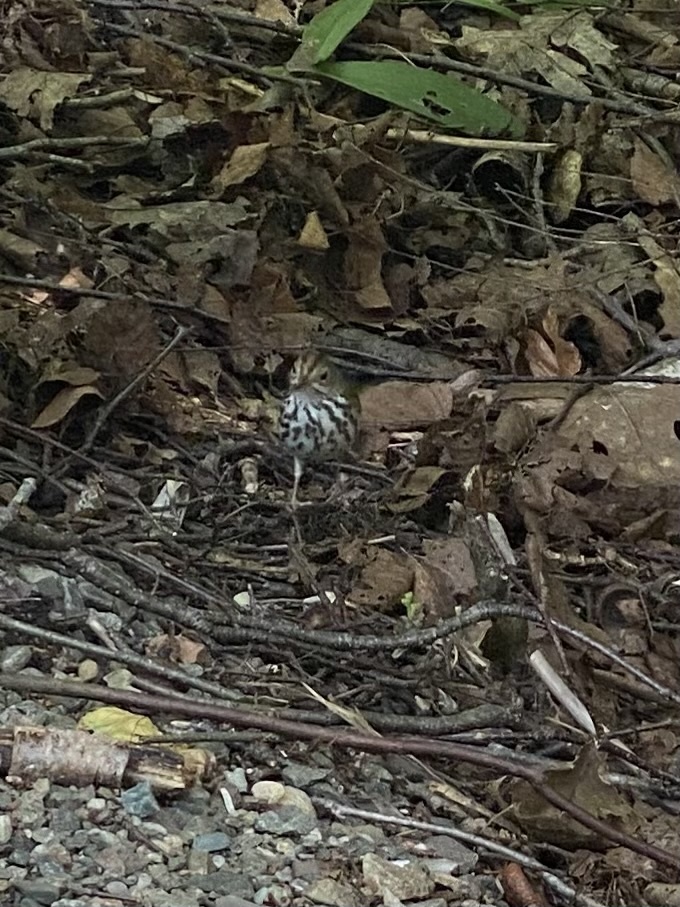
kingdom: Animalia
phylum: Chordata
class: Aves
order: Passeriformes
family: Parulidae
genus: Seiurus
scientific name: Seiurus aurocapilla
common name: Ovenbird
